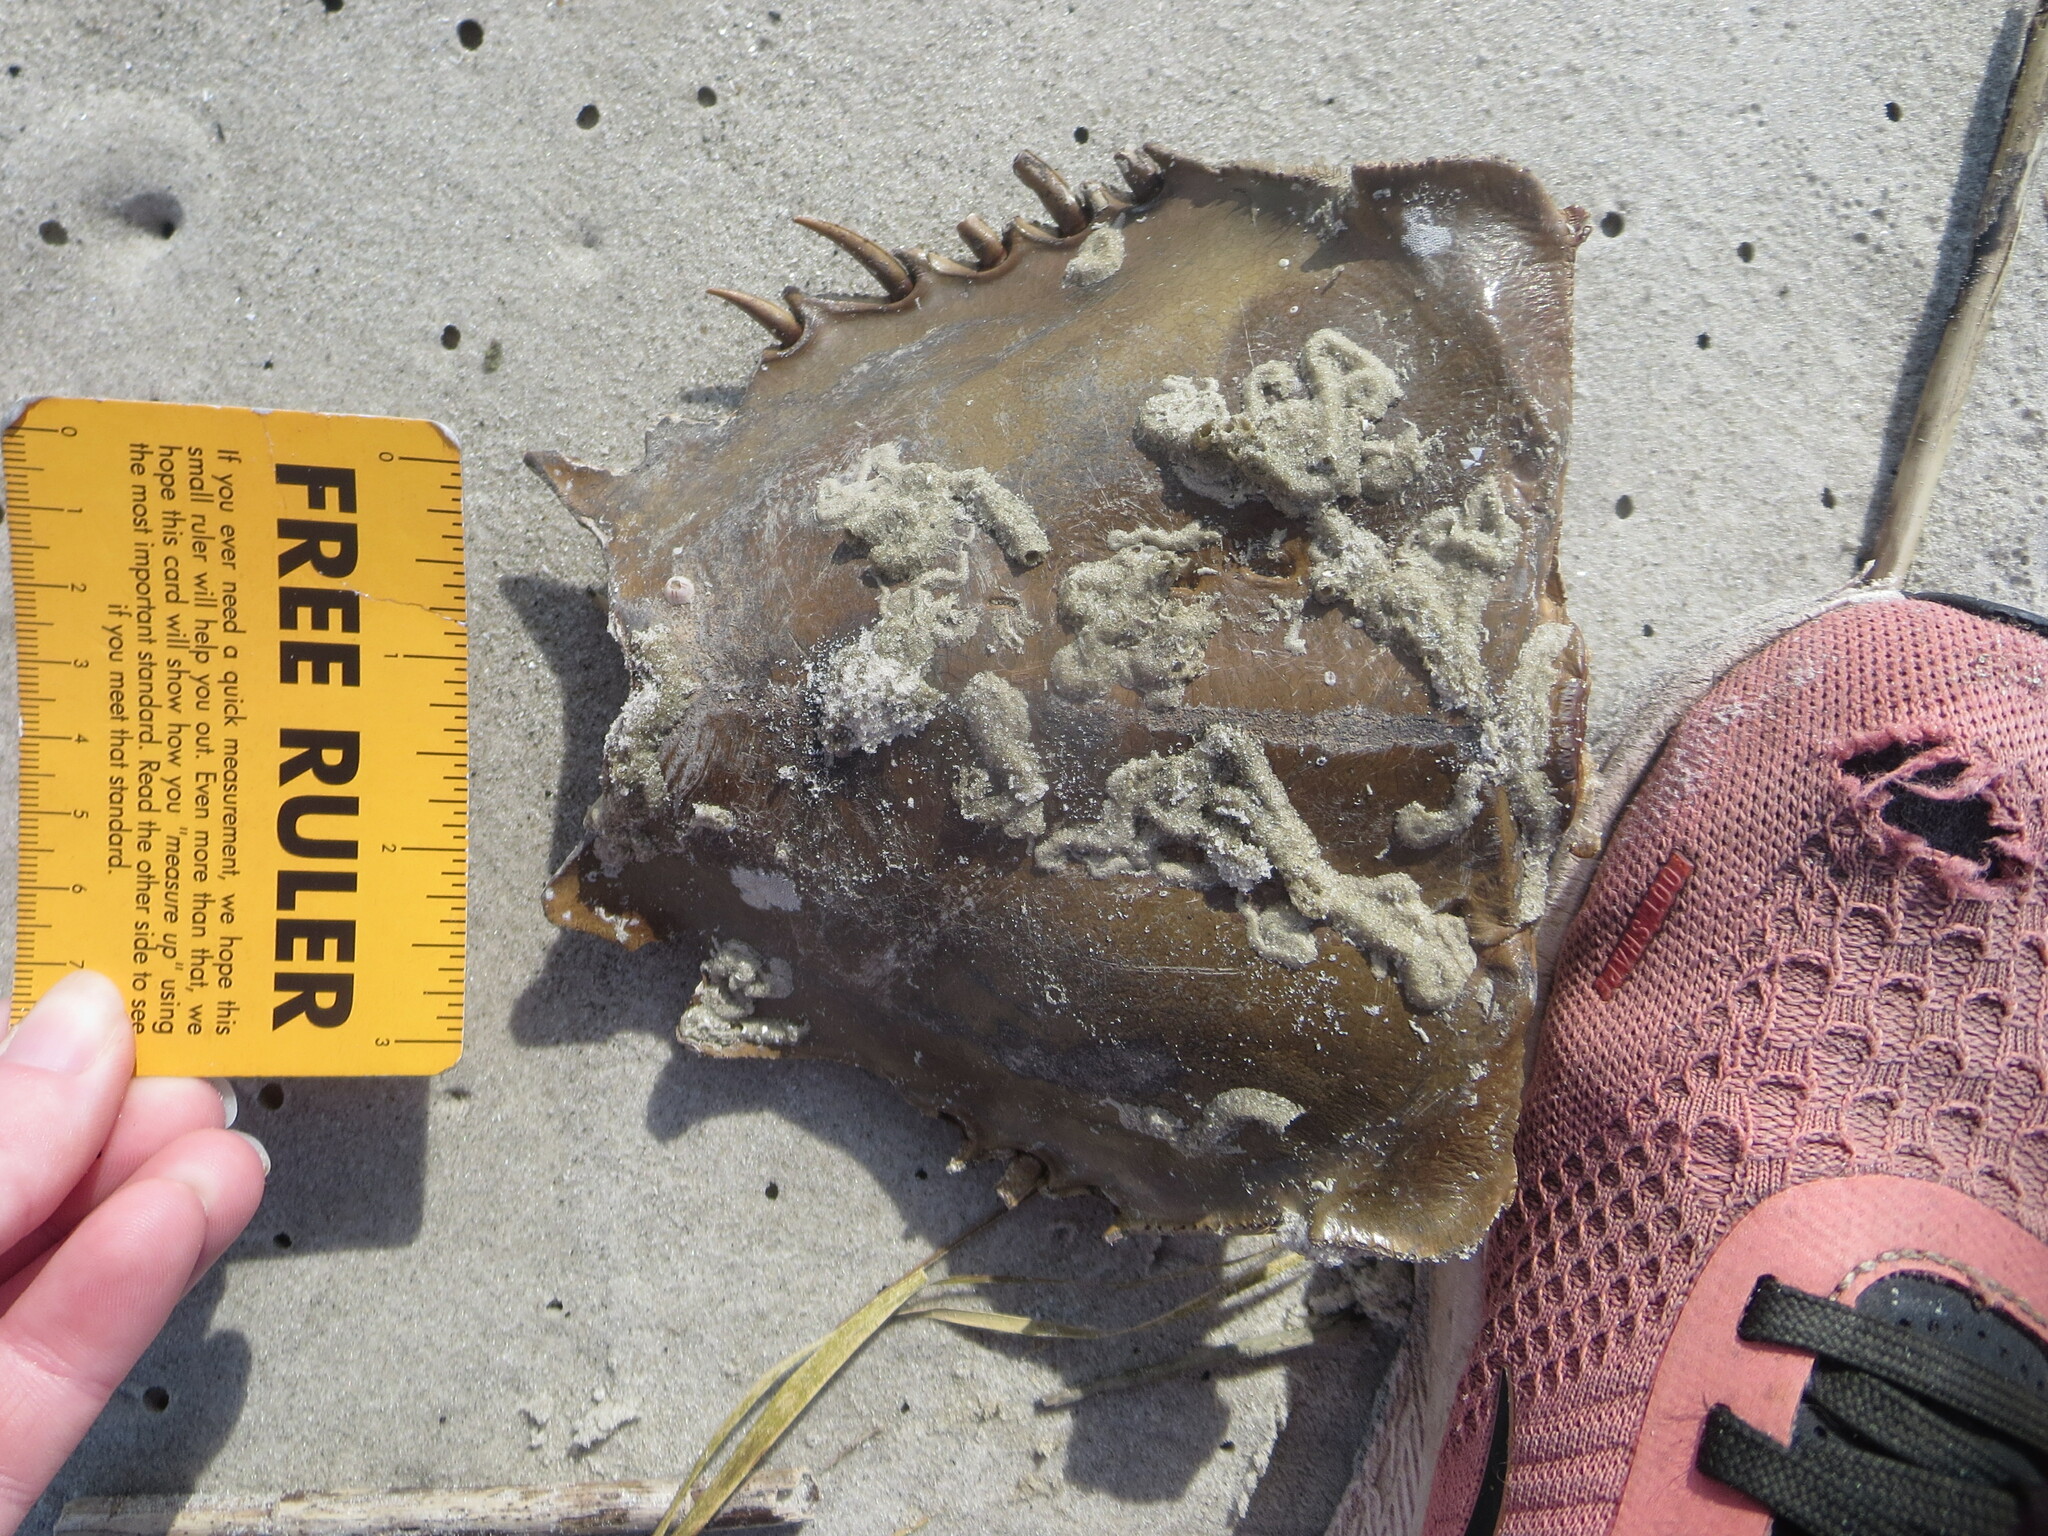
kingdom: Animalia
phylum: Arthropoda
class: Merostomata
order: Xiphosurida
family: Limulidae
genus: Limulus
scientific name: Limulus polyphemus
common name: Horseshoe crab
